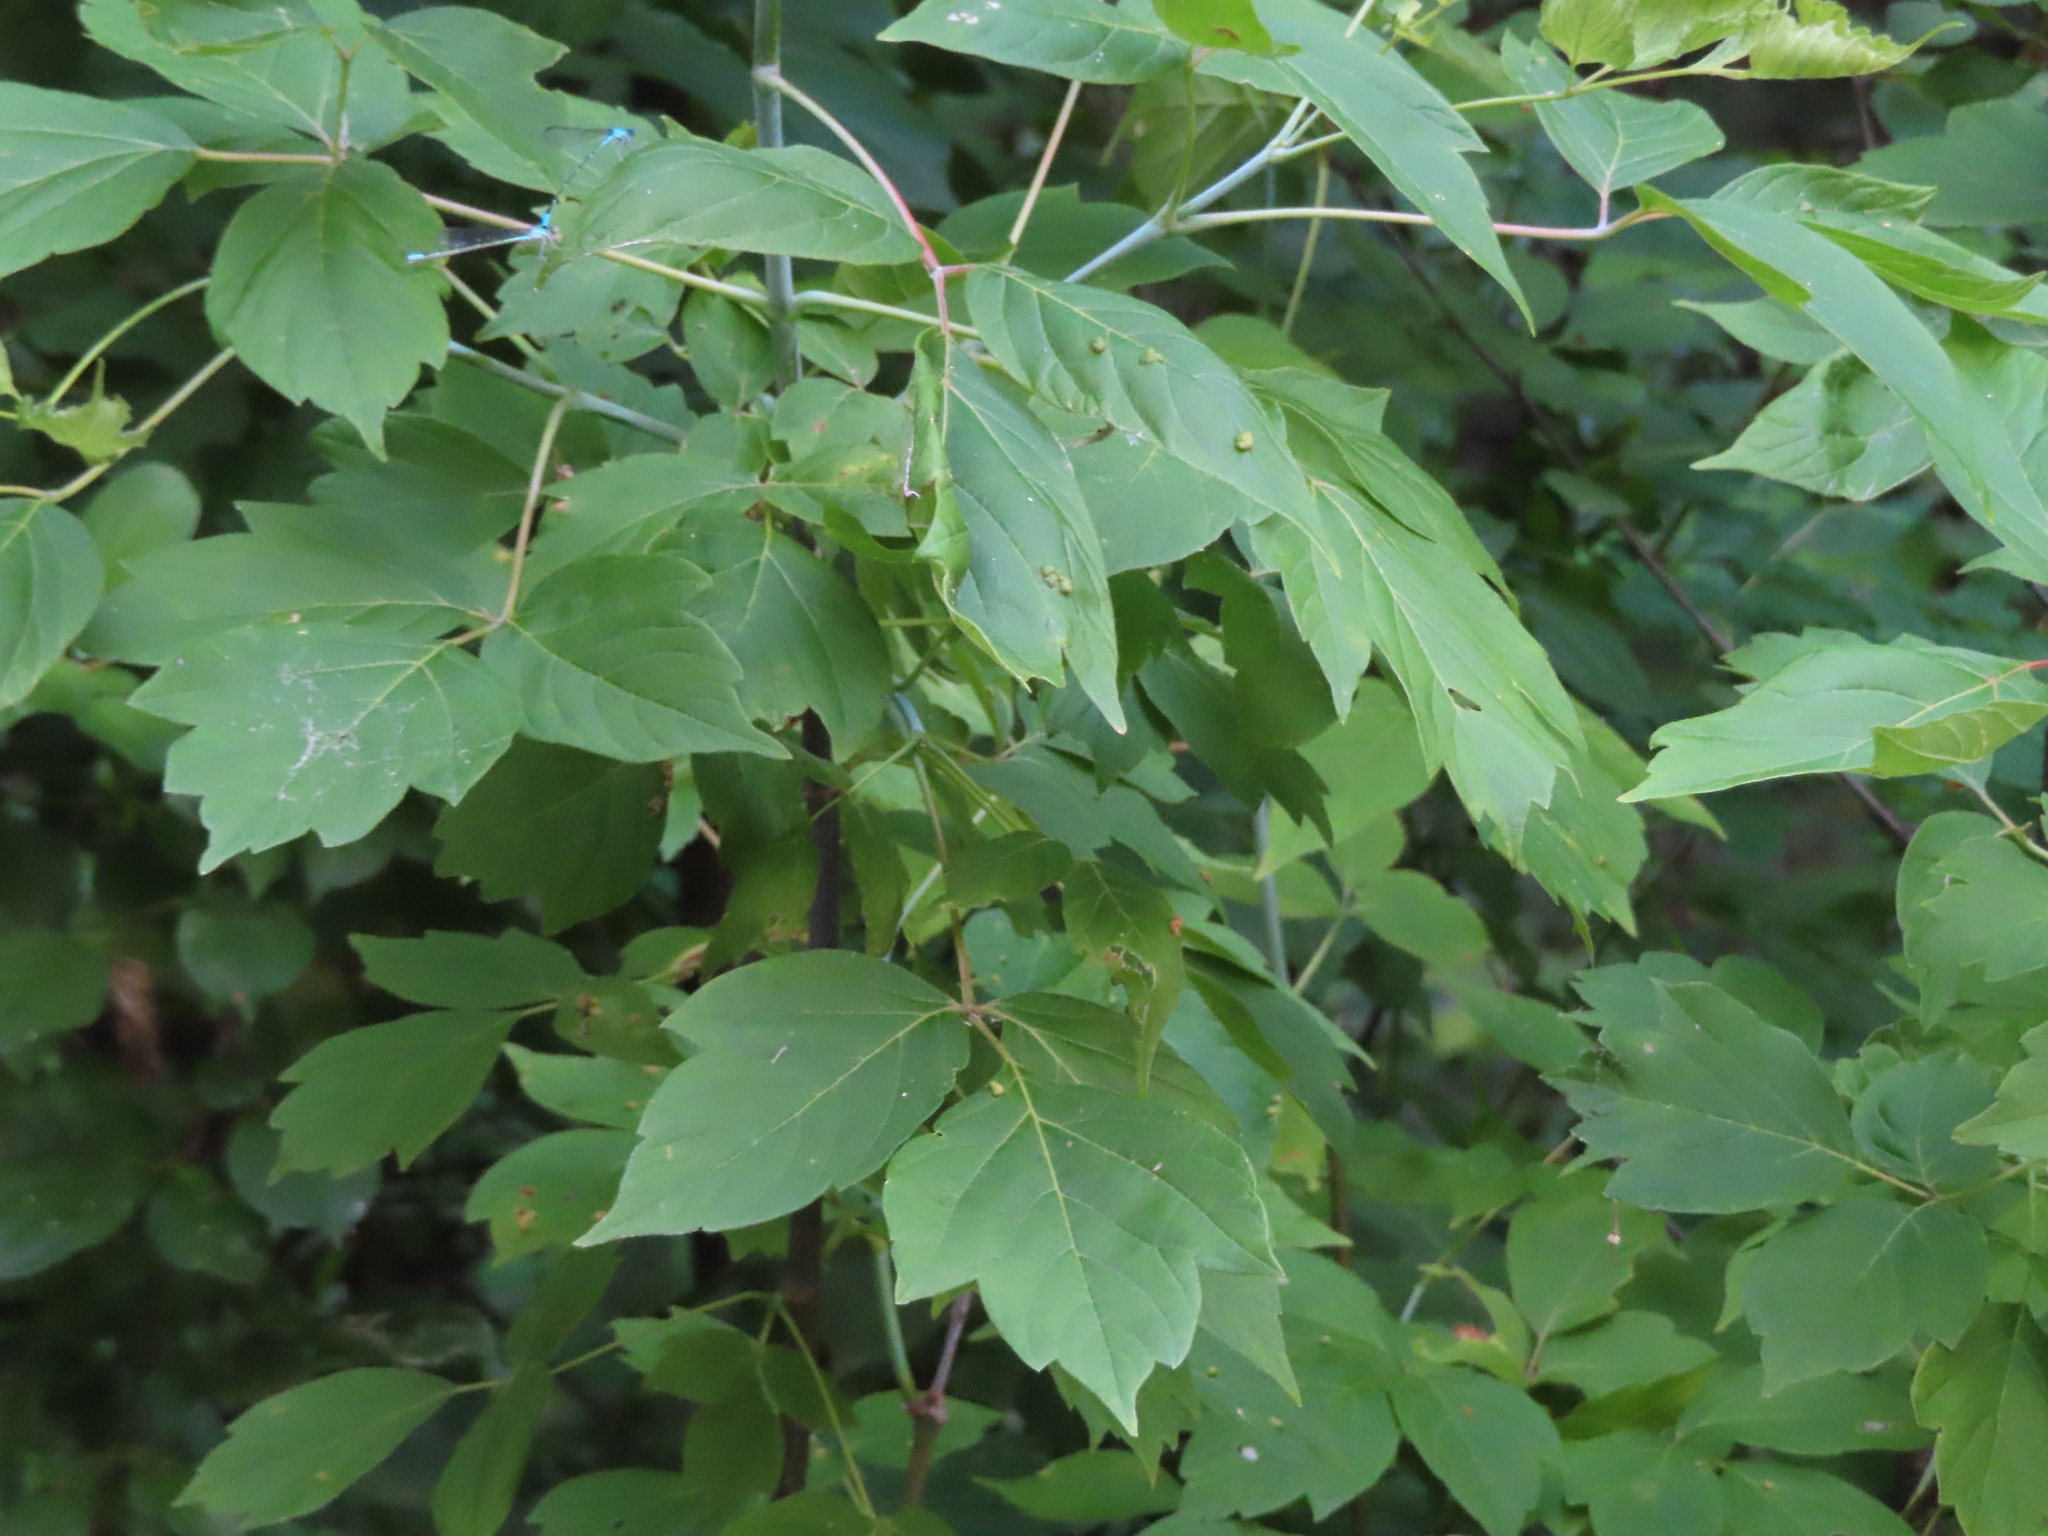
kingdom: Plantae
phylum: Tracheophyta
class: Magnoliopsida
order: Sapindales
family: Sapindaceae
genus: Acer
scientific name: Acer negundo
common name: Ashleaf maple
